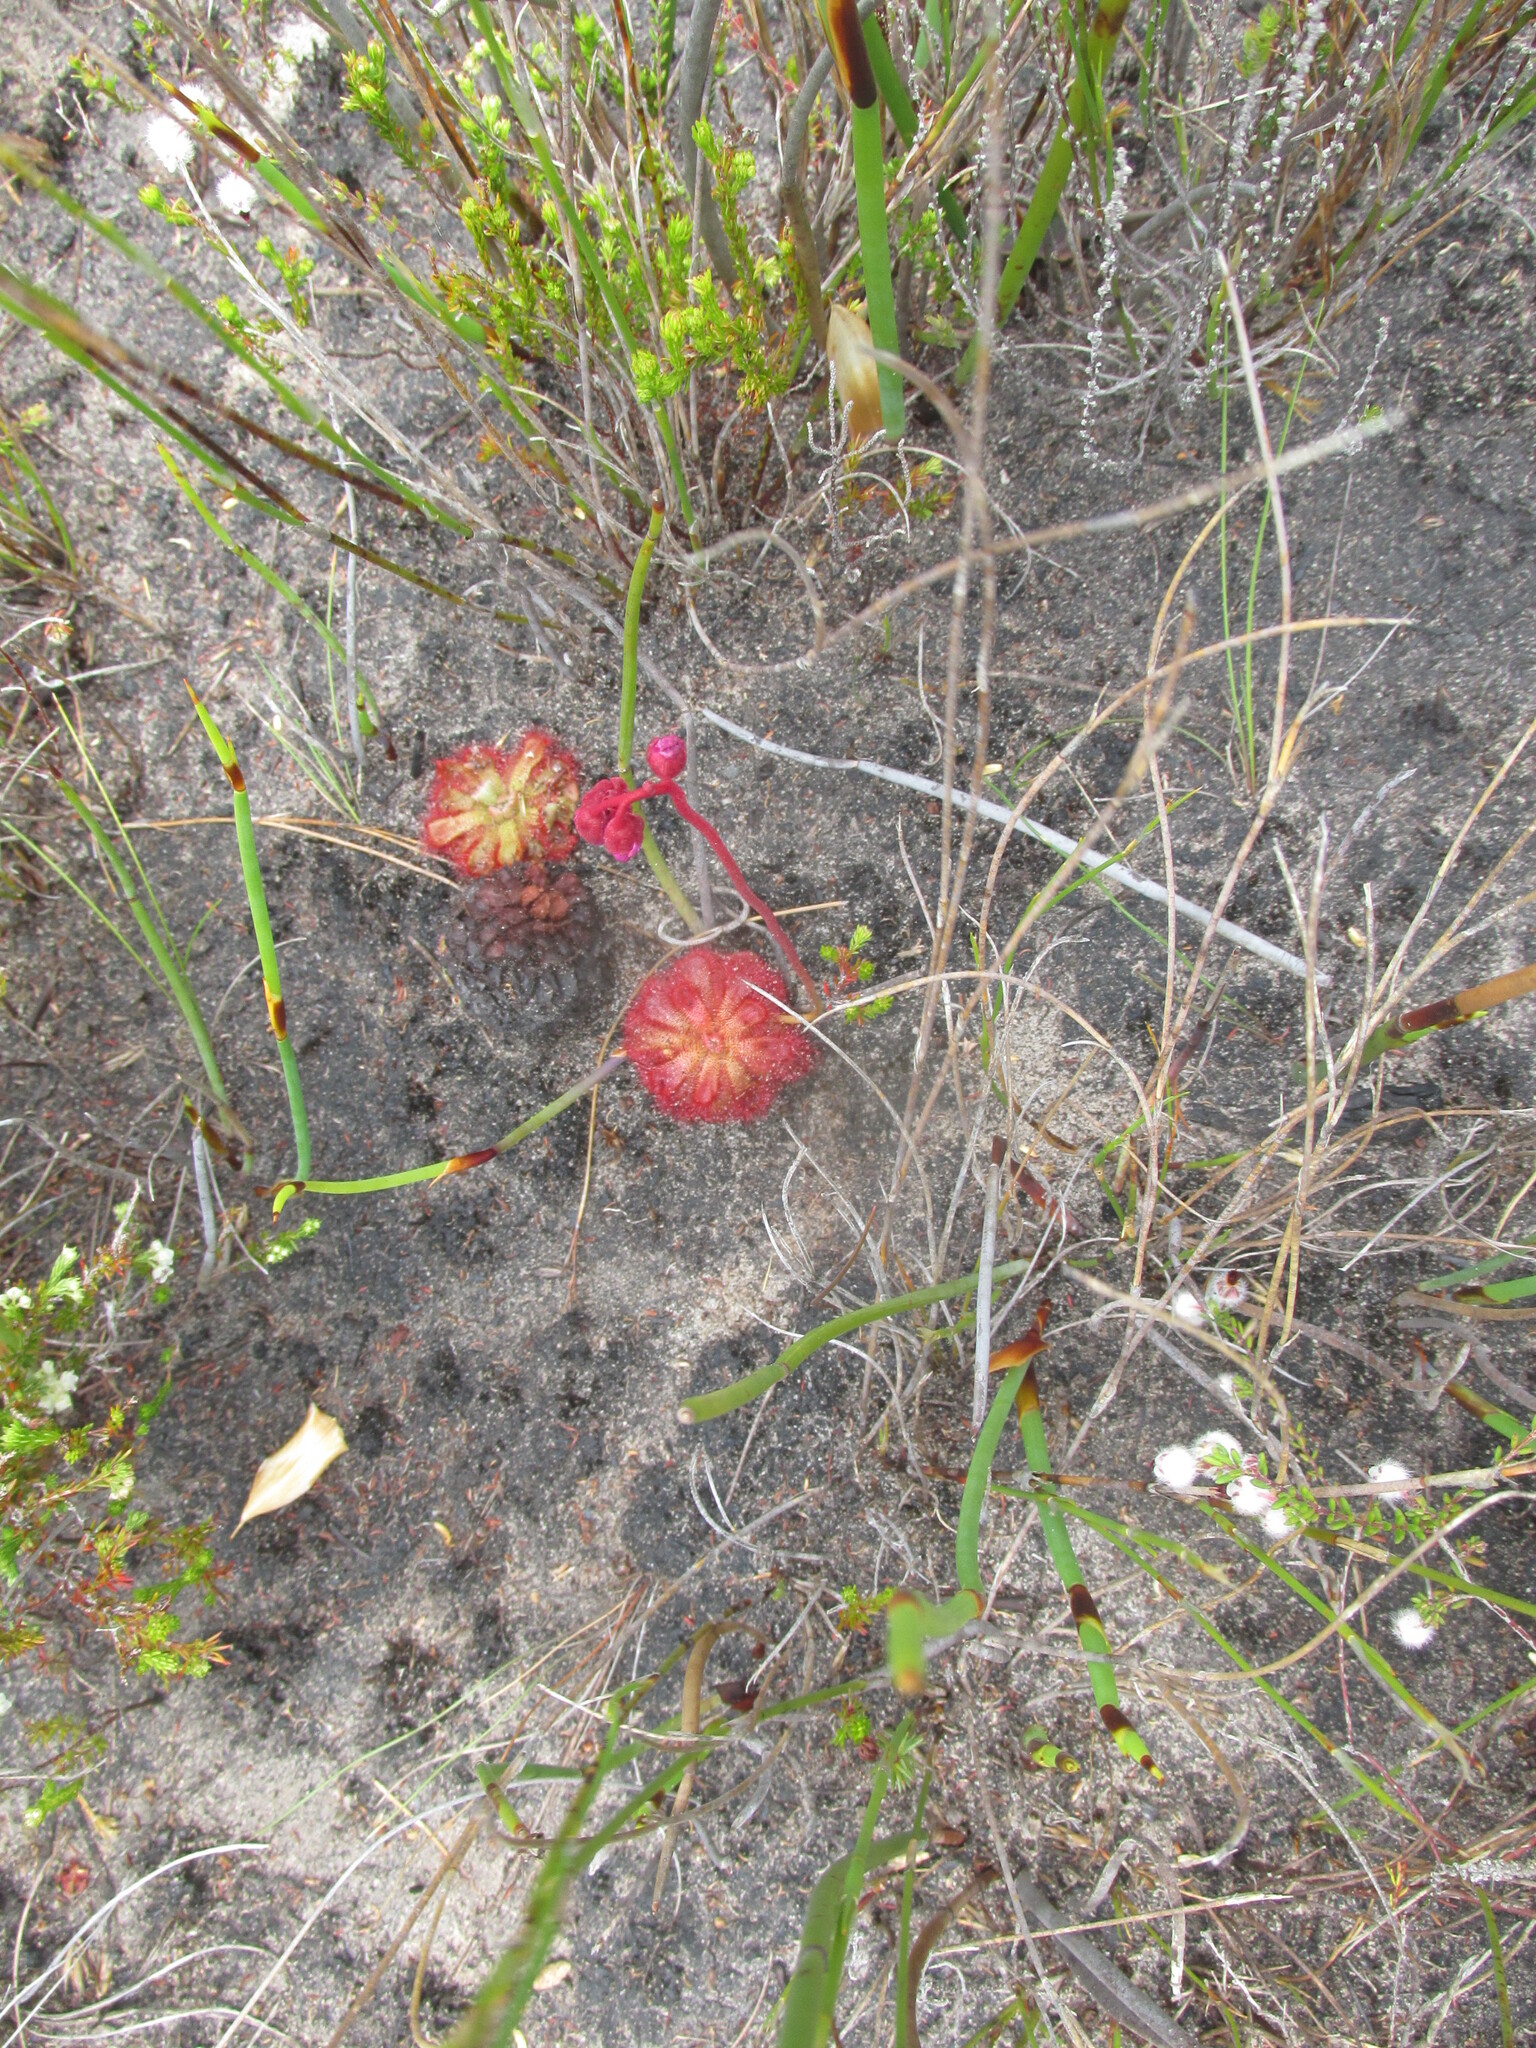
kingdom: Plantae
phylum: Tracheophyta
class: Magnoliopsida
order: Caryophyllales
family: Droseraceae
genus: Drosera
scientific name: Drosera aliciae
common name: Alice sundew
